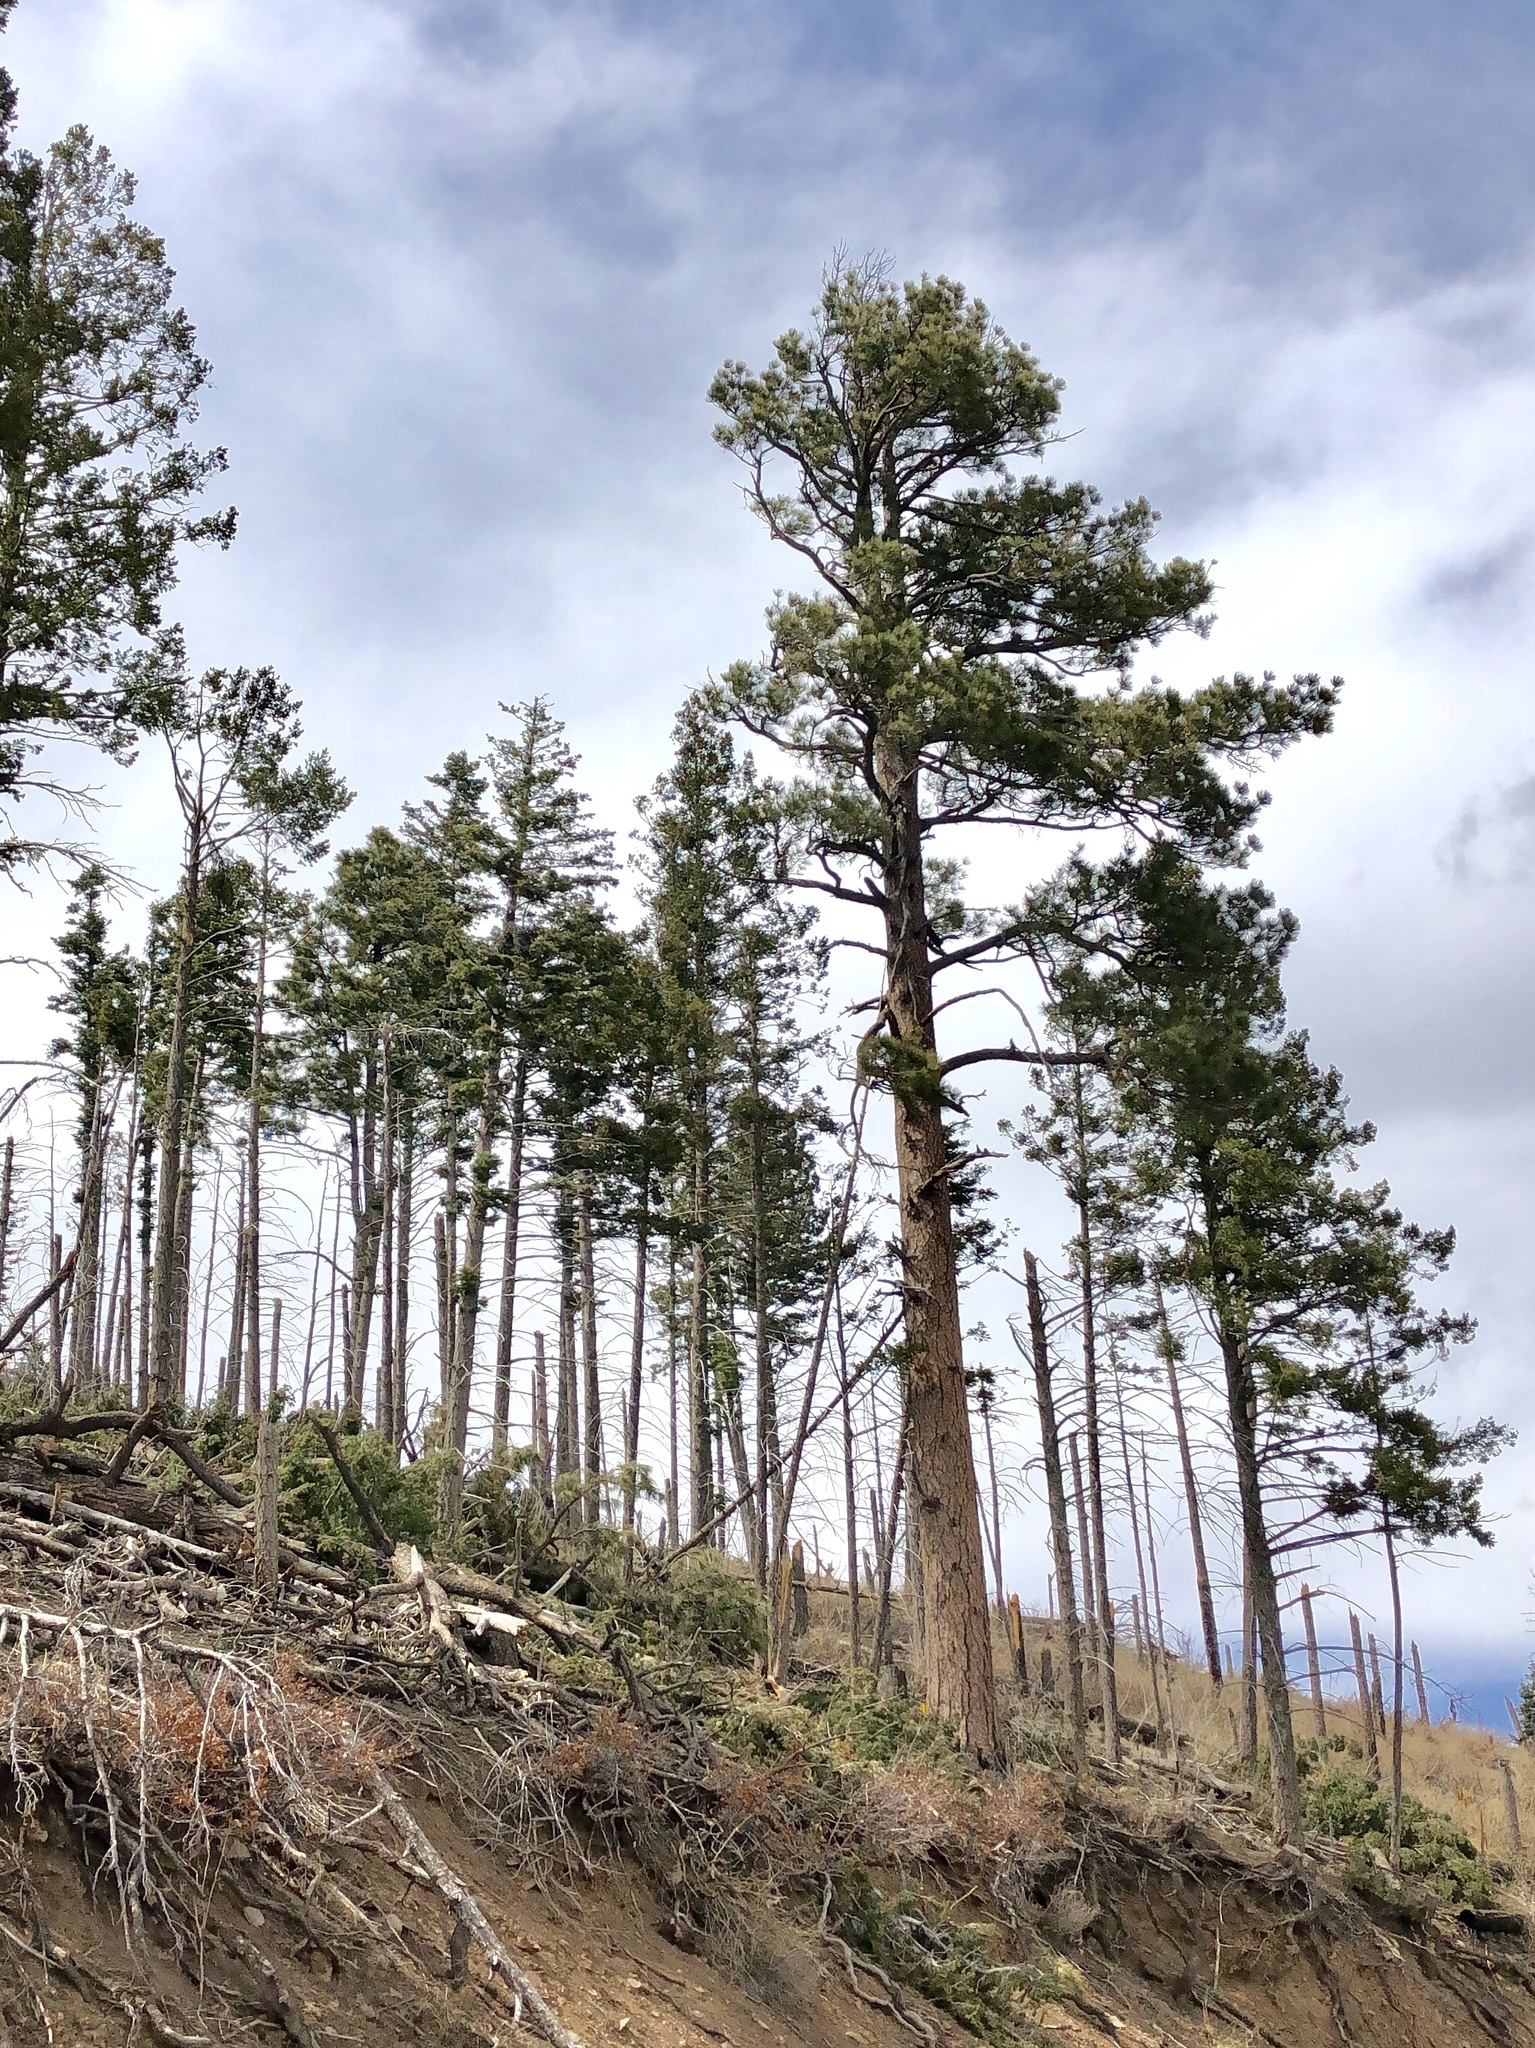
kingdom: Plantae
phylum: Tracheophyta
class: Pinopsida
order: Pinales
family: Pinaceae
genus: Pinus
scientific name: Pinus ponderosa
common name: Western yellow-pine
